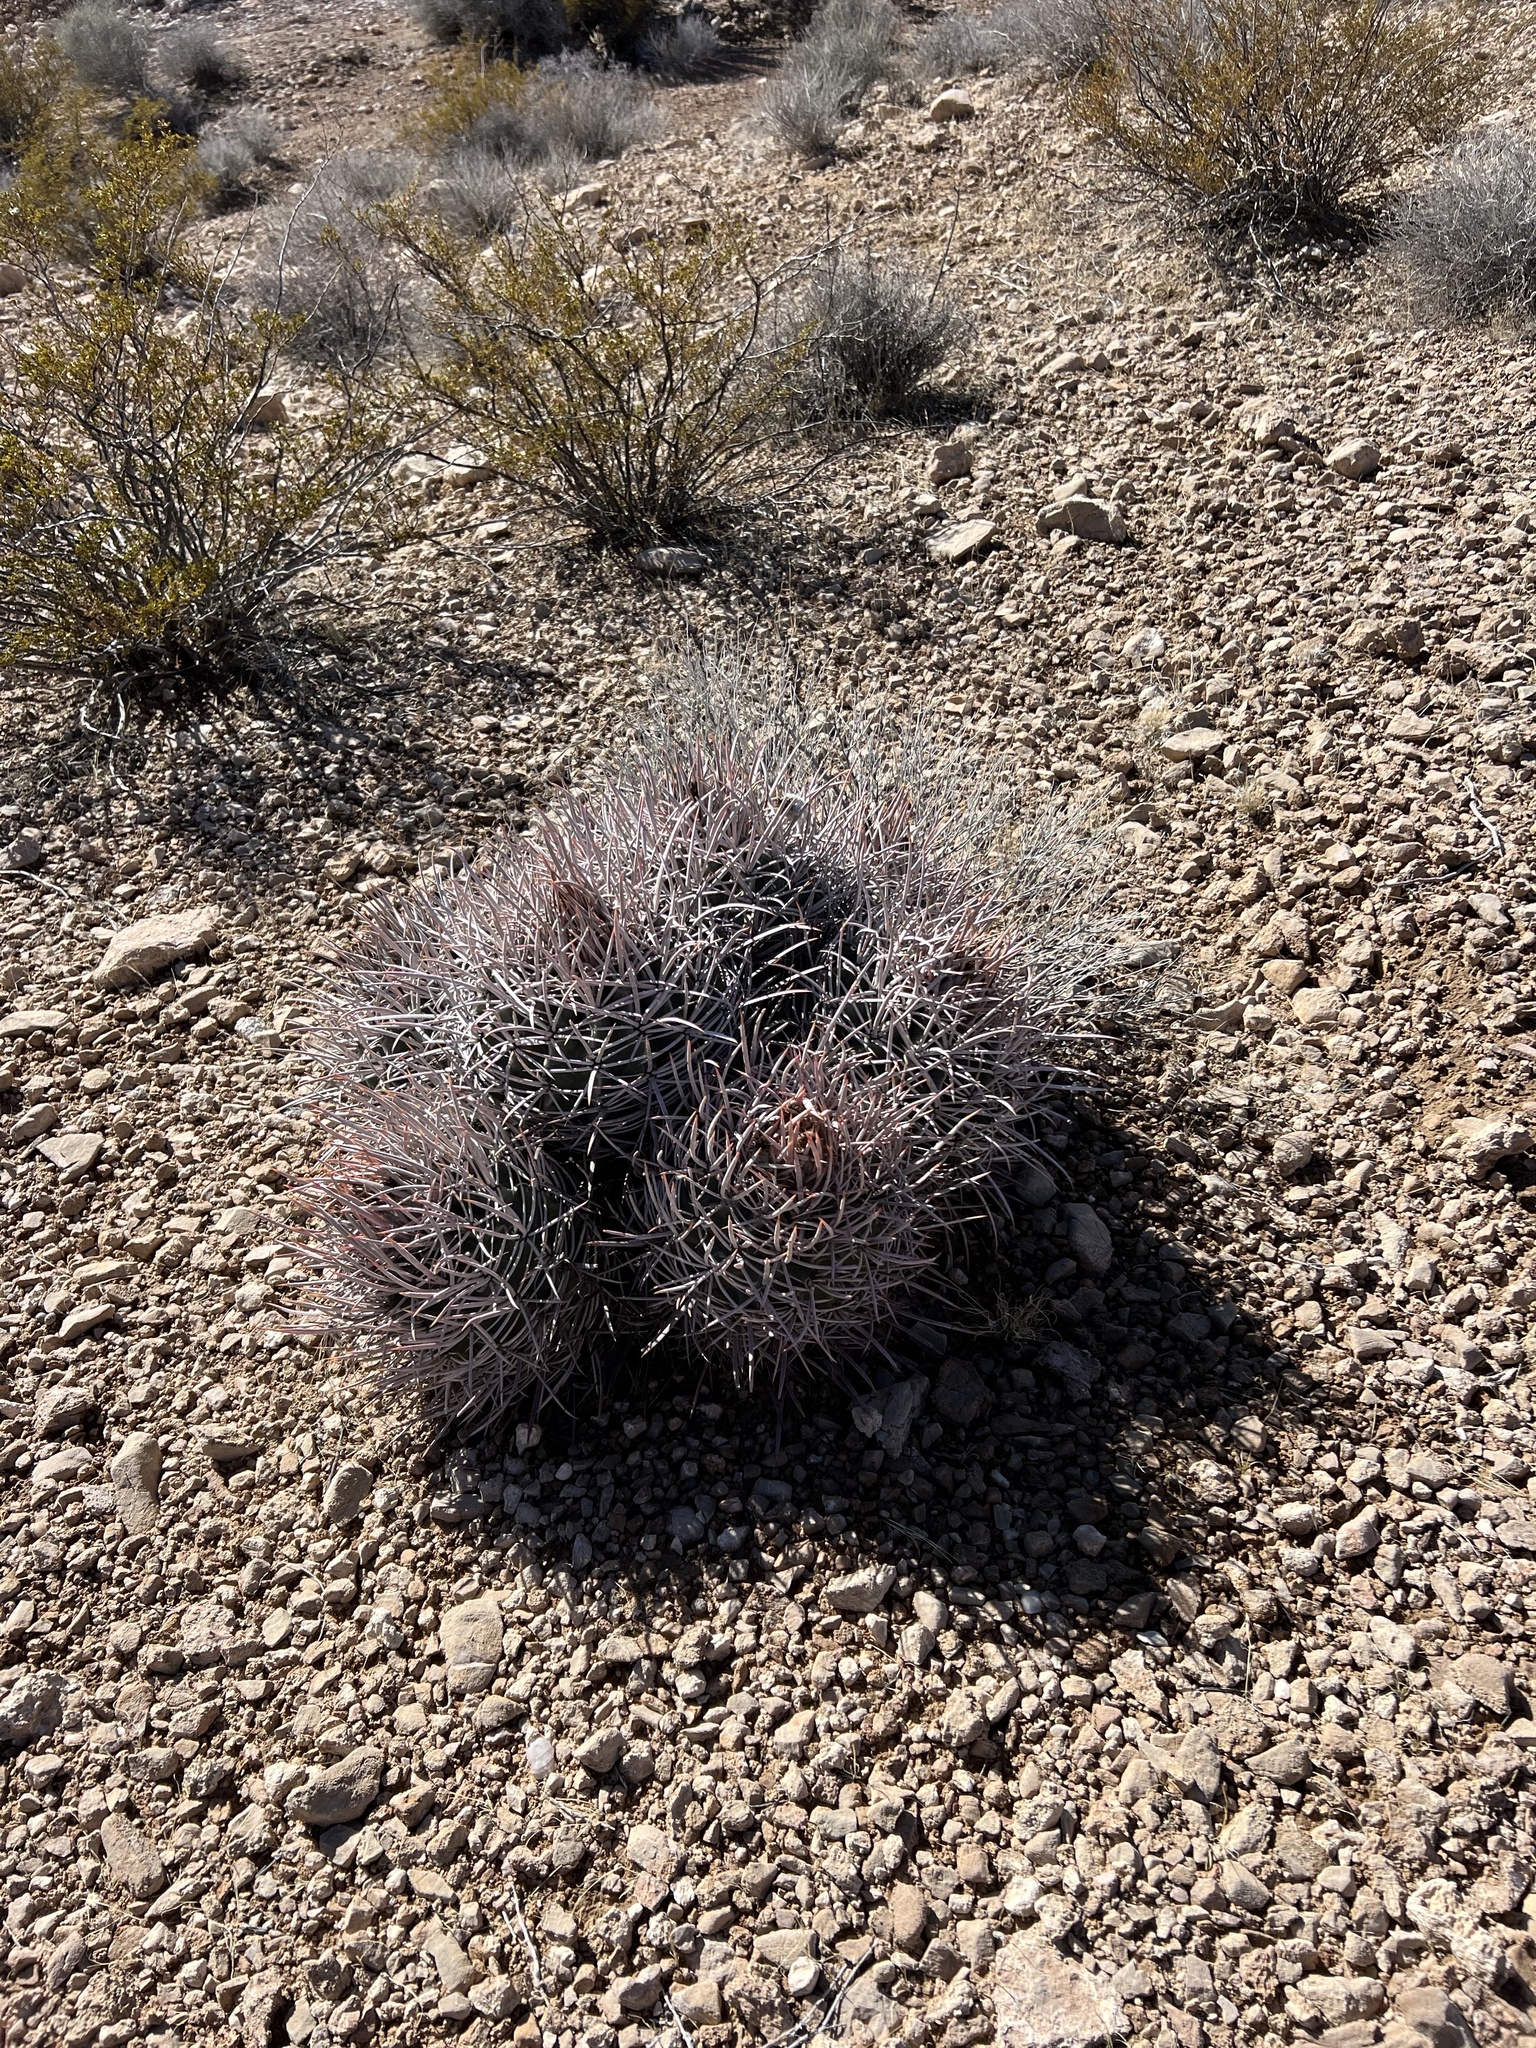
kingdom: Plantae
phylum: Tracheophyta
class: Magnoliopsida
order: Caryophyllales
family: Cactaceae
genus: Echinocactus
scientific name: Echinocactus polycephalus
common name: Cottontop cactus
